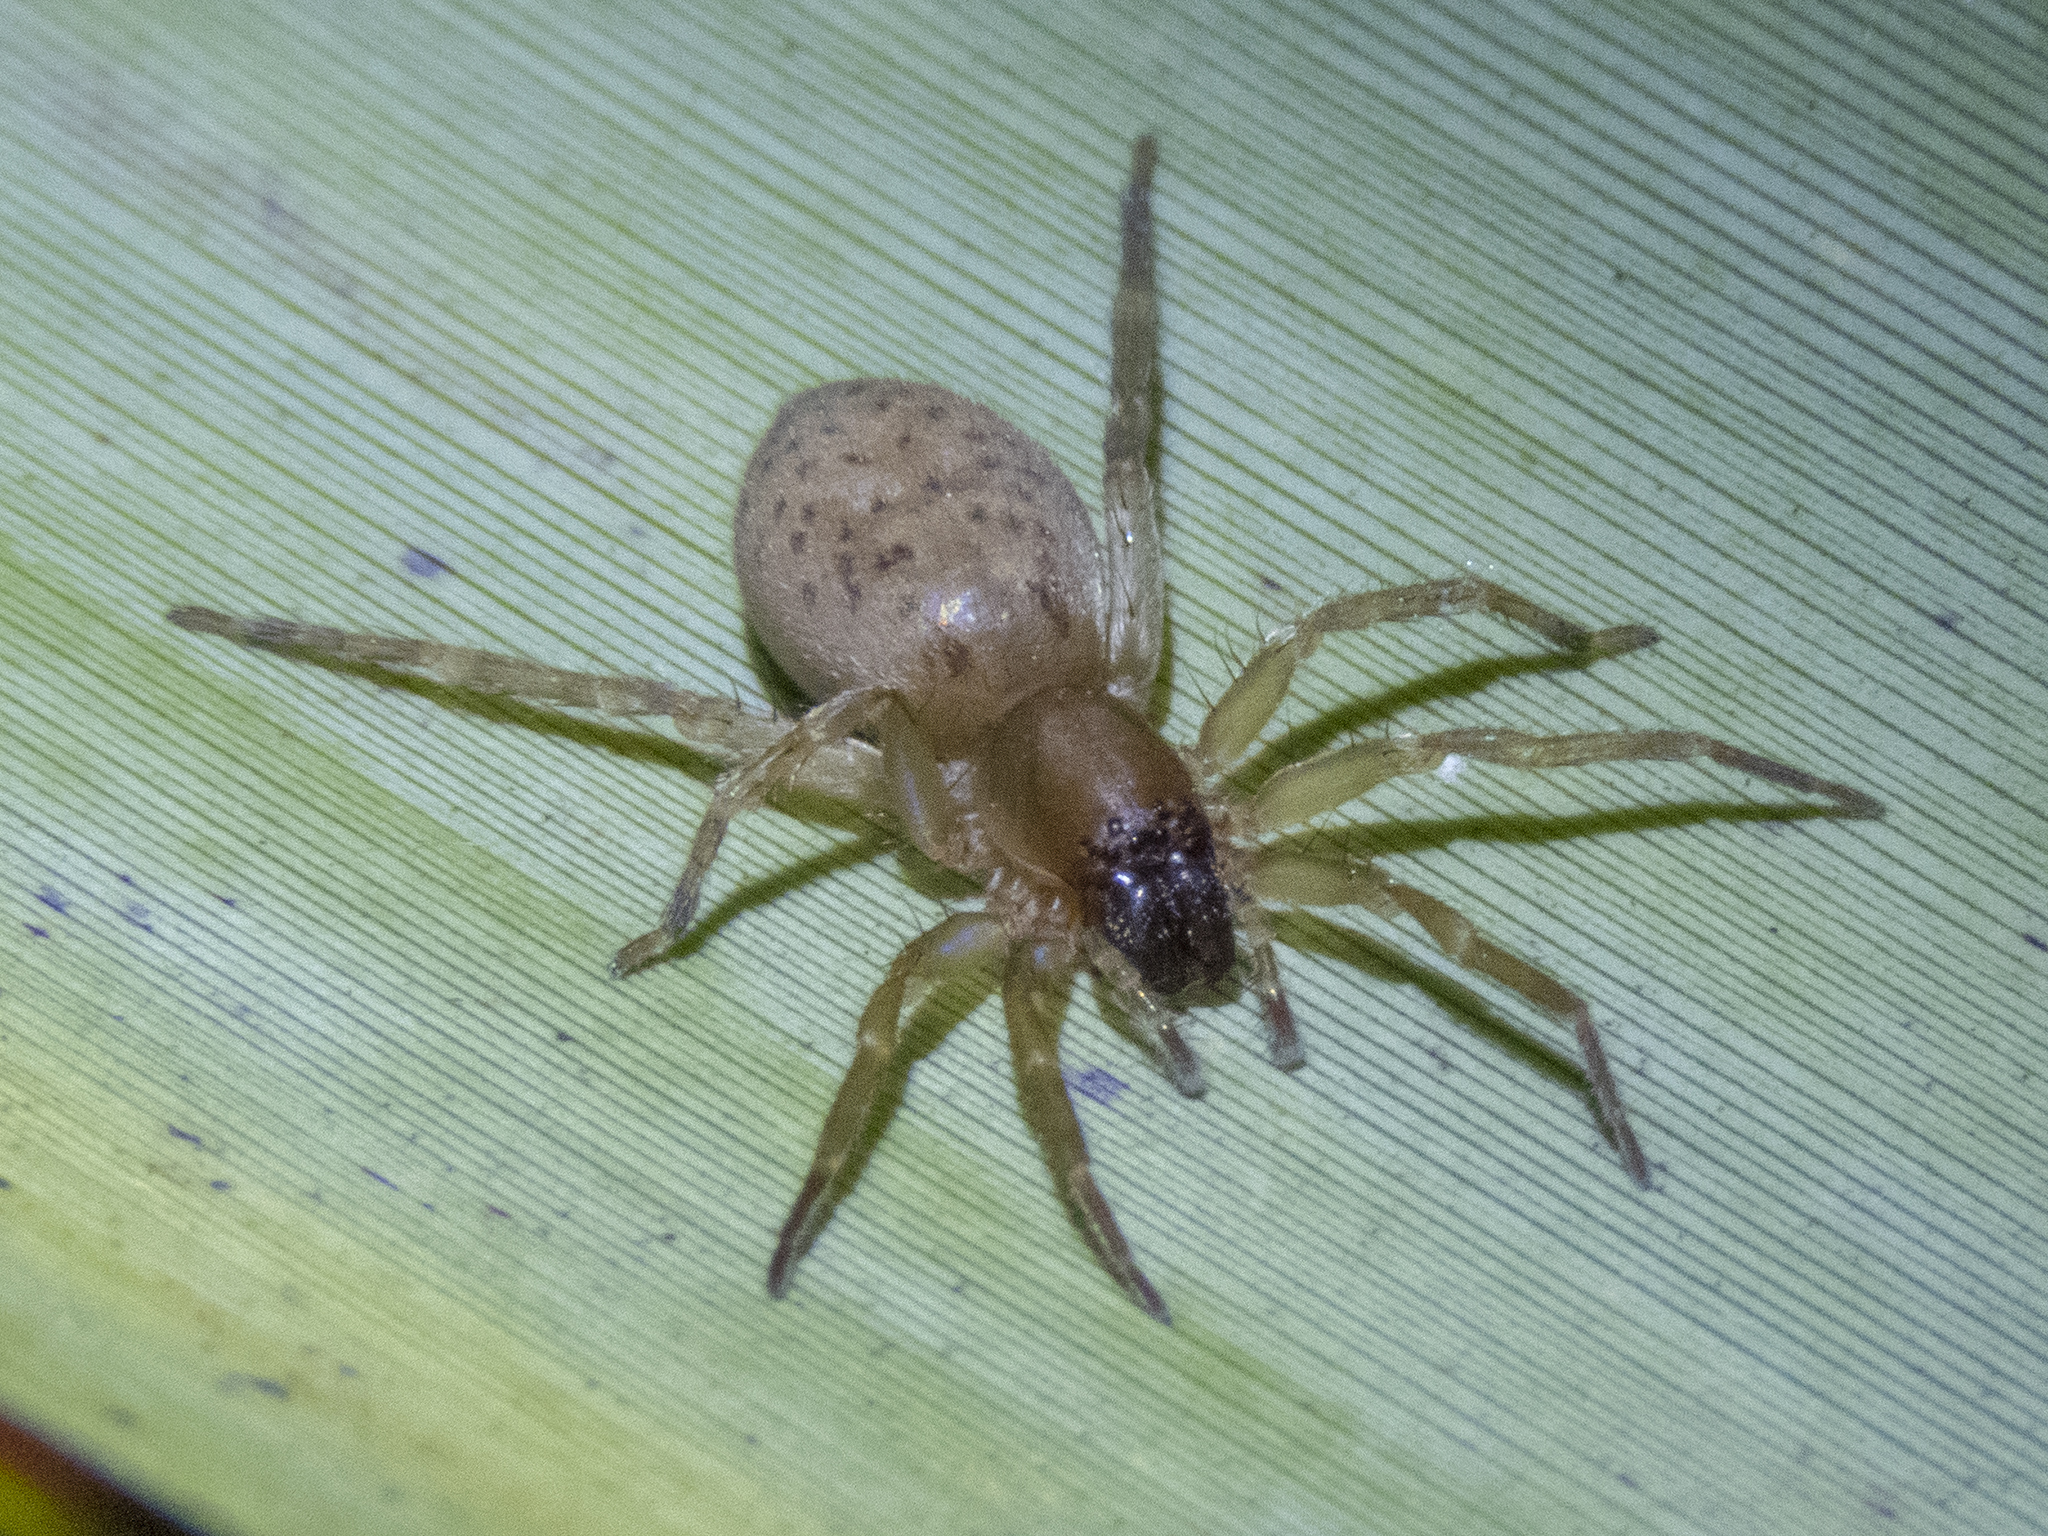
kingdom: Animalia
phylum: Arthropoda
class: Arachnida
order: Araneae
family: Clubionidae
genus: Clubiona
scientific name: Clubiona huttoni
